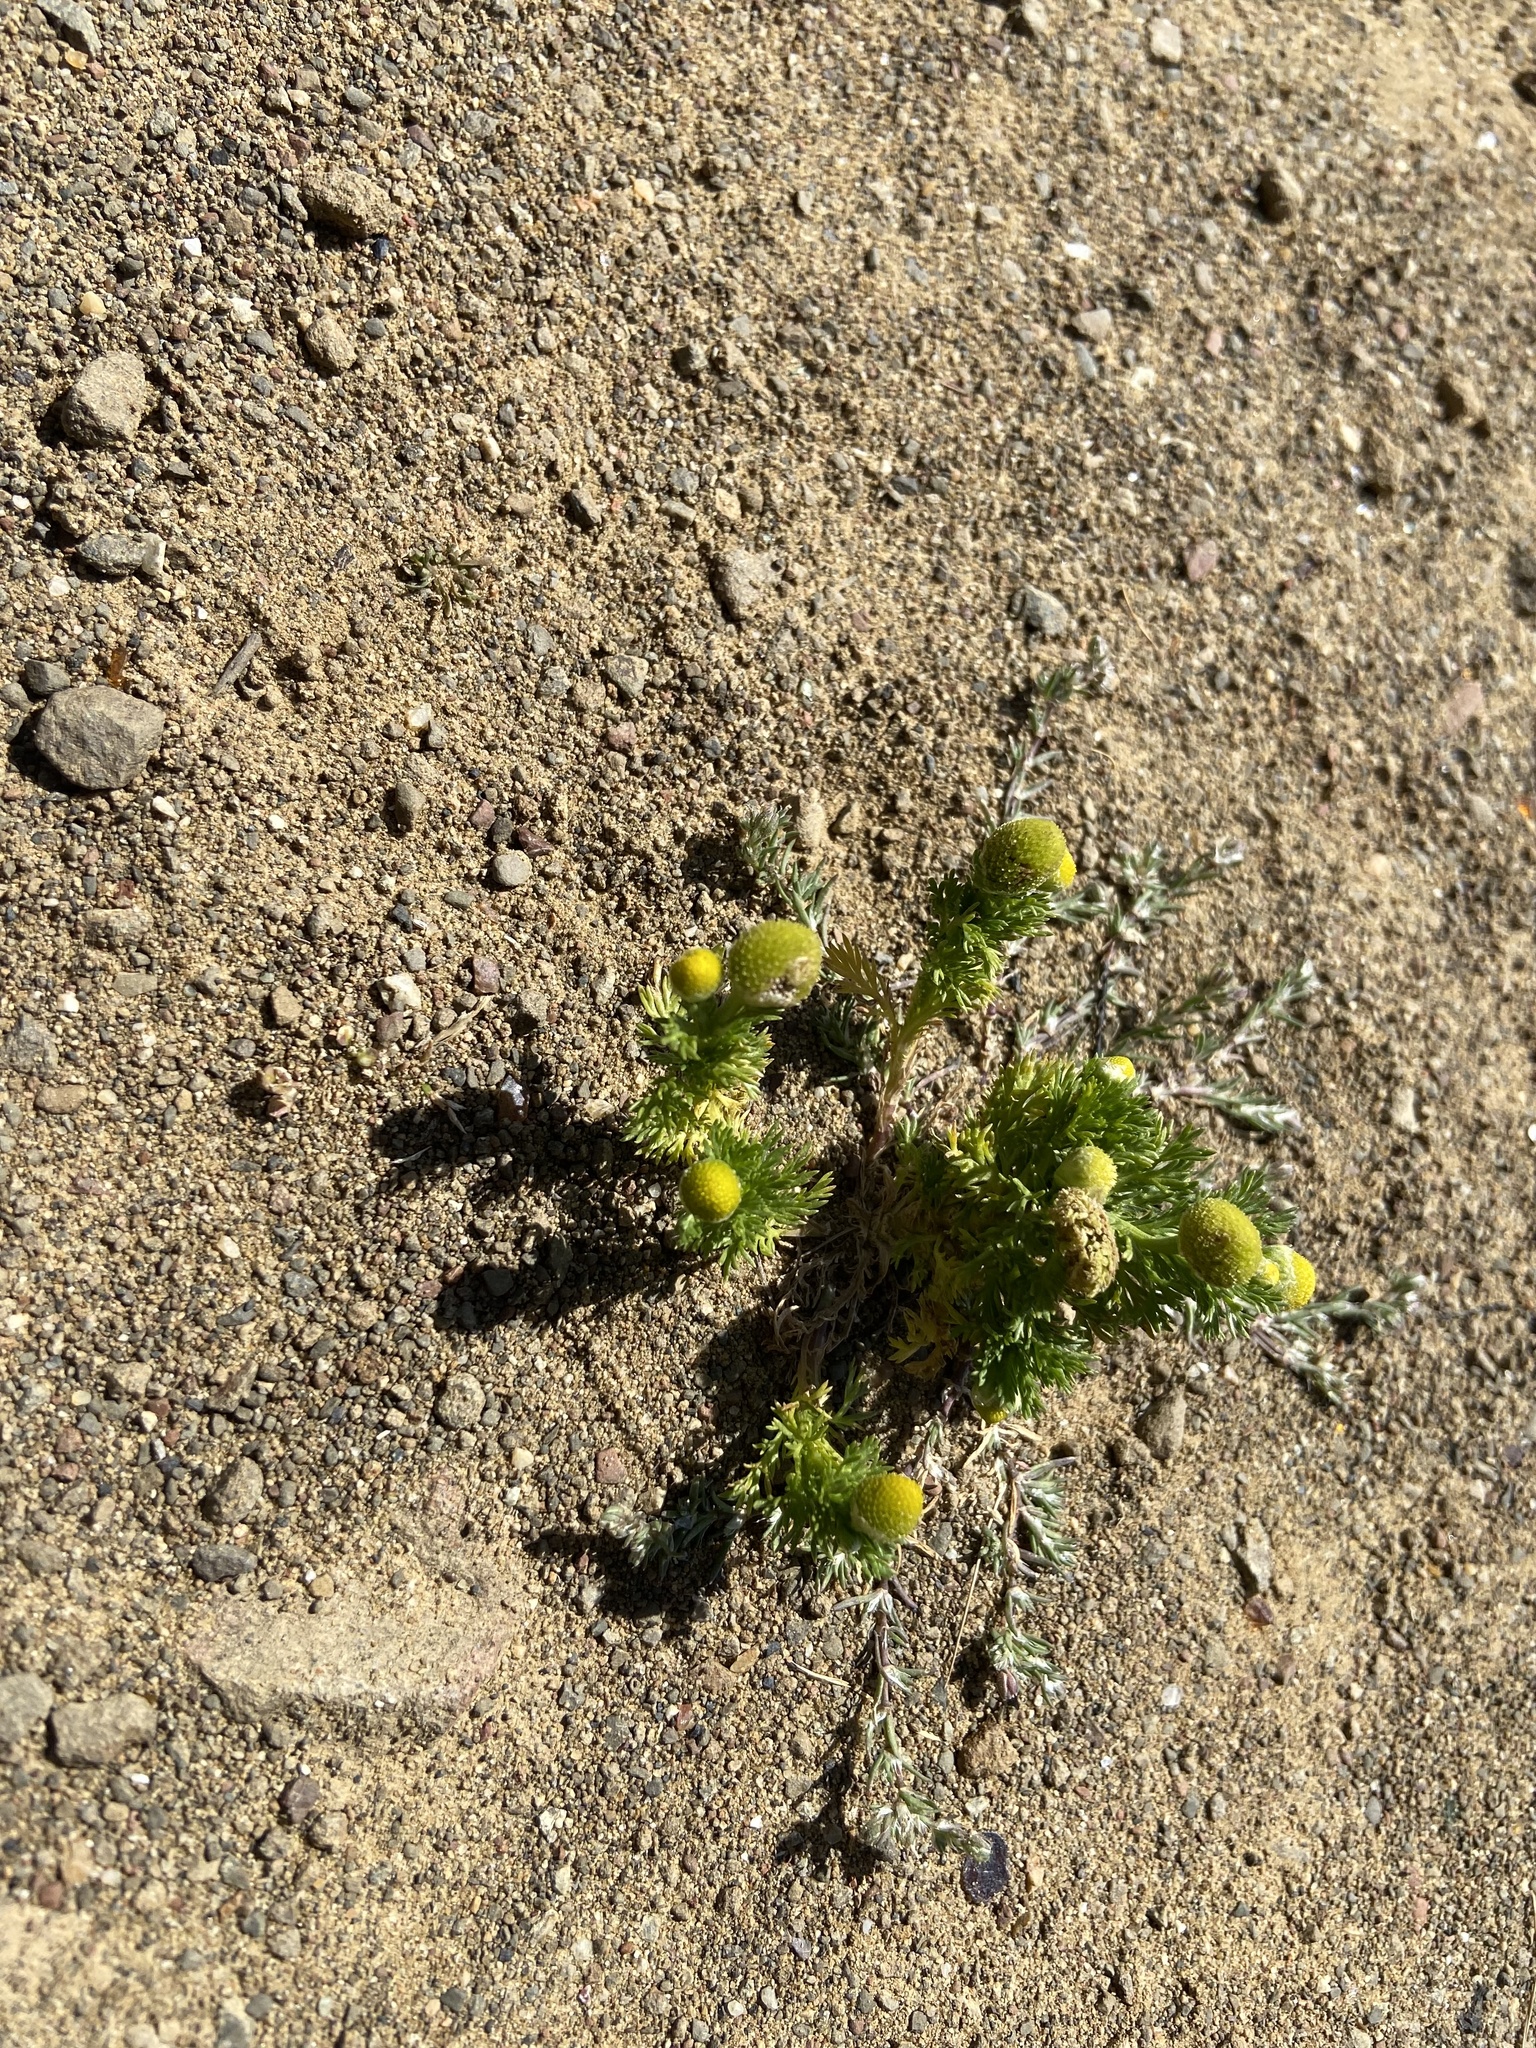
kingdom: Plantae
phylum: Tracheophyta
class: Magnoliopsida
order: Asterales
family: Asteraceae
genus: Matricaria
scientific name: Matricaria discoidea
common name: Disc mayweed
